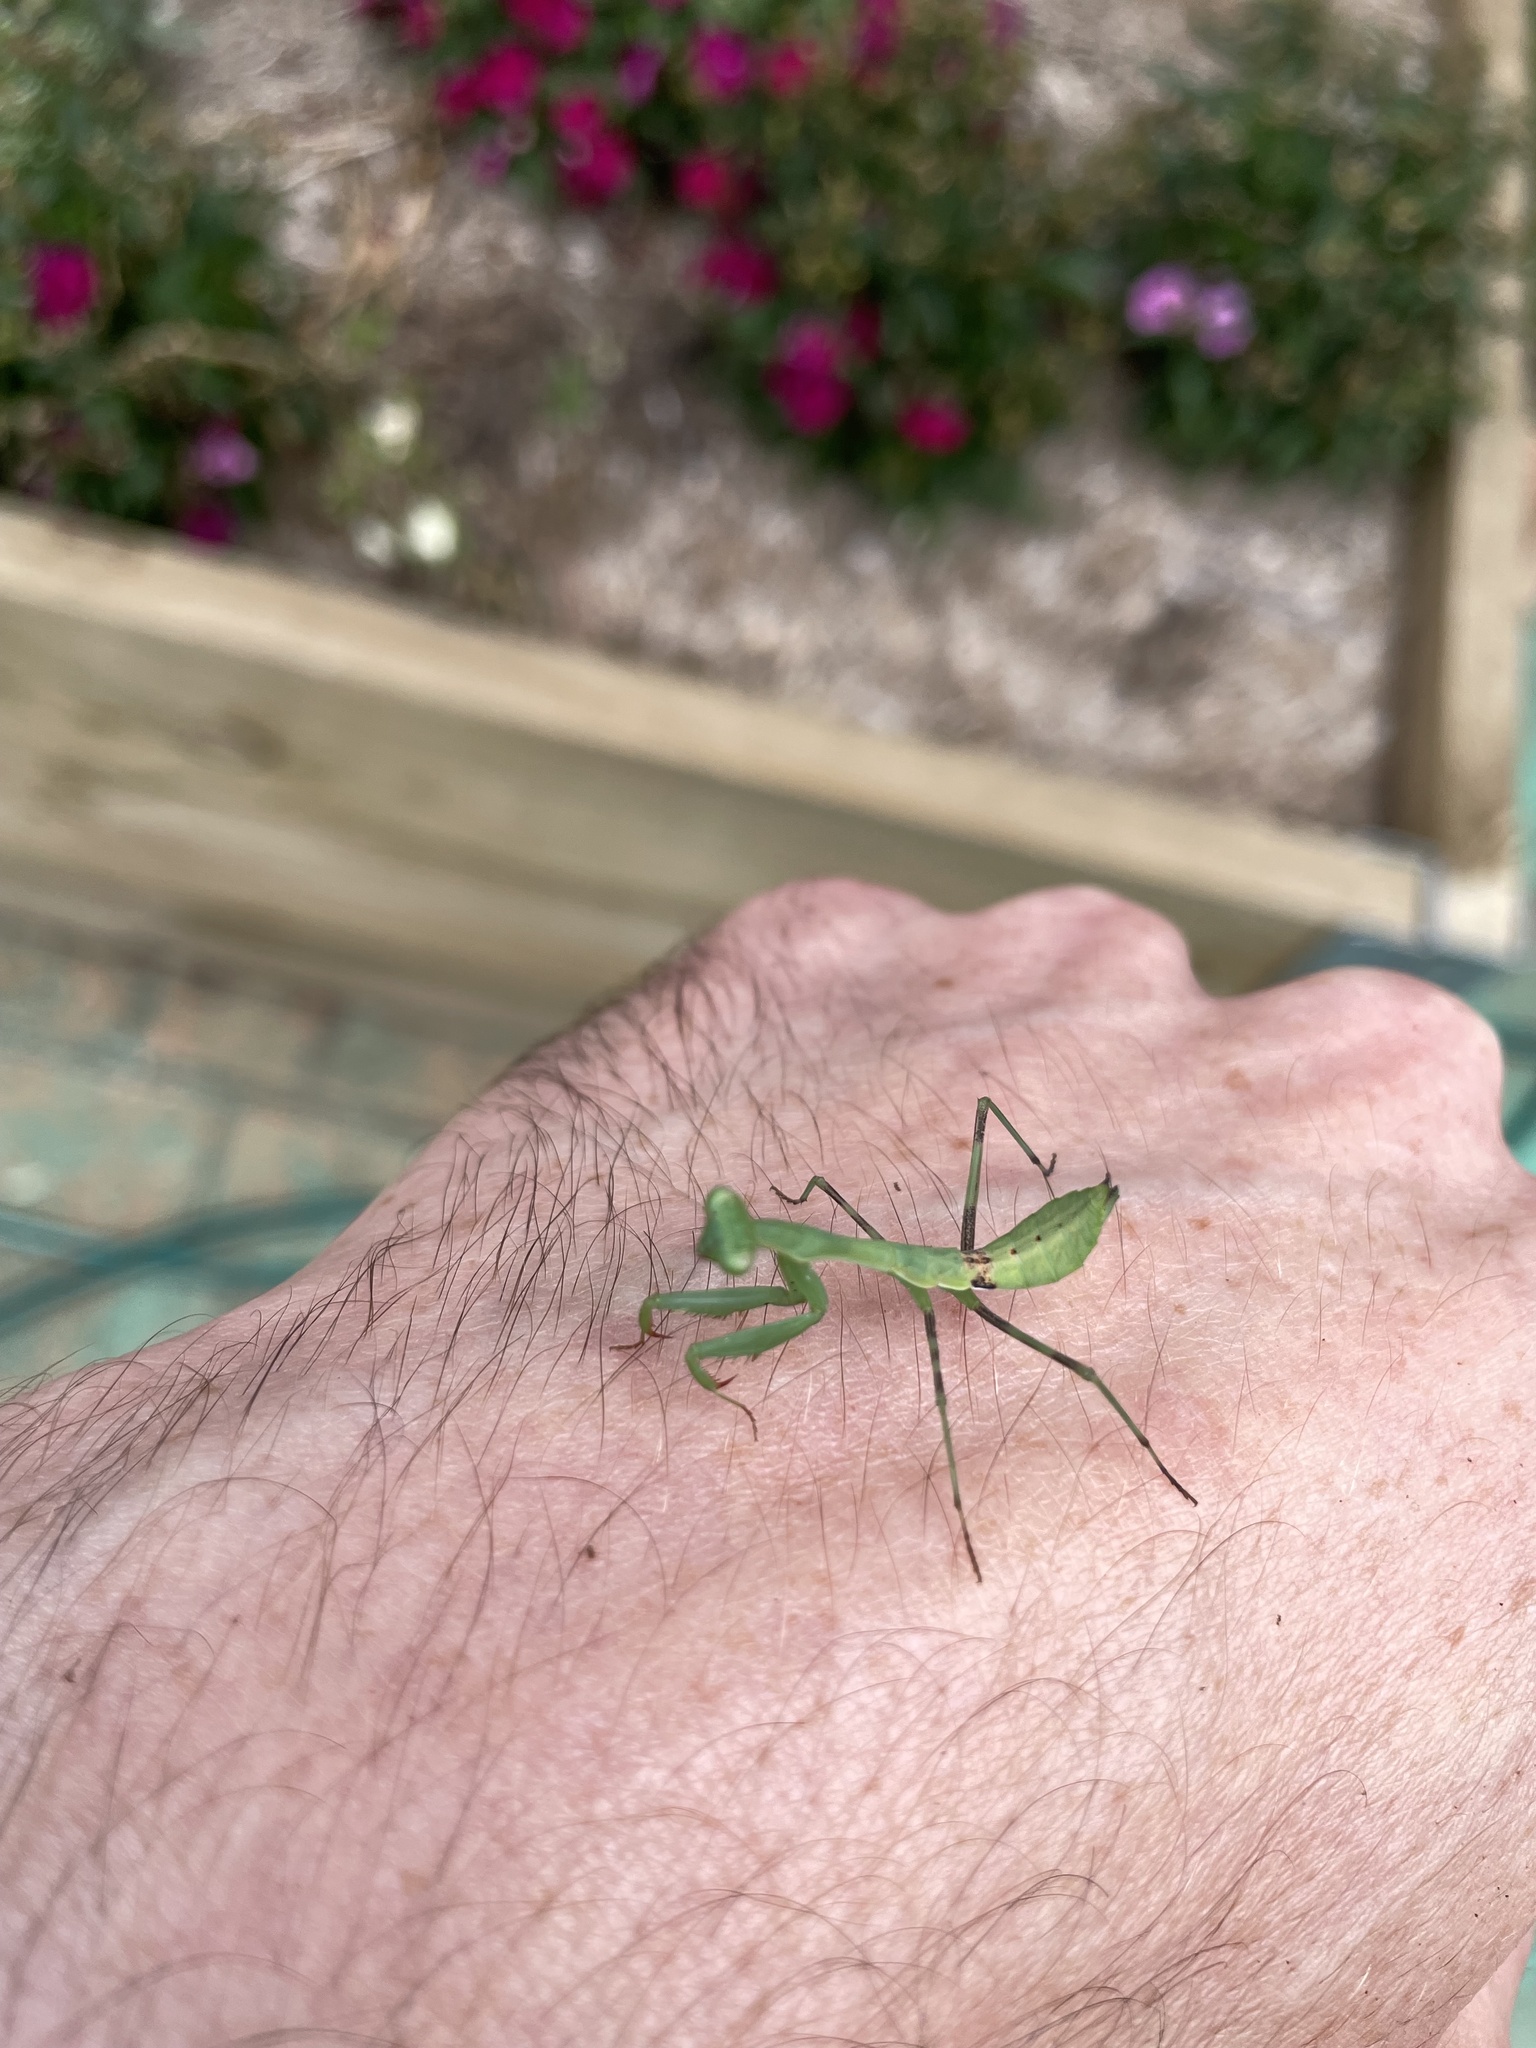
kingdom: Animalia
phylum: Arthropoda
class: Insecta
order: Mantodea
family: Miomantidae
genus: Miomantis
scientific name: Miomantis caffra
